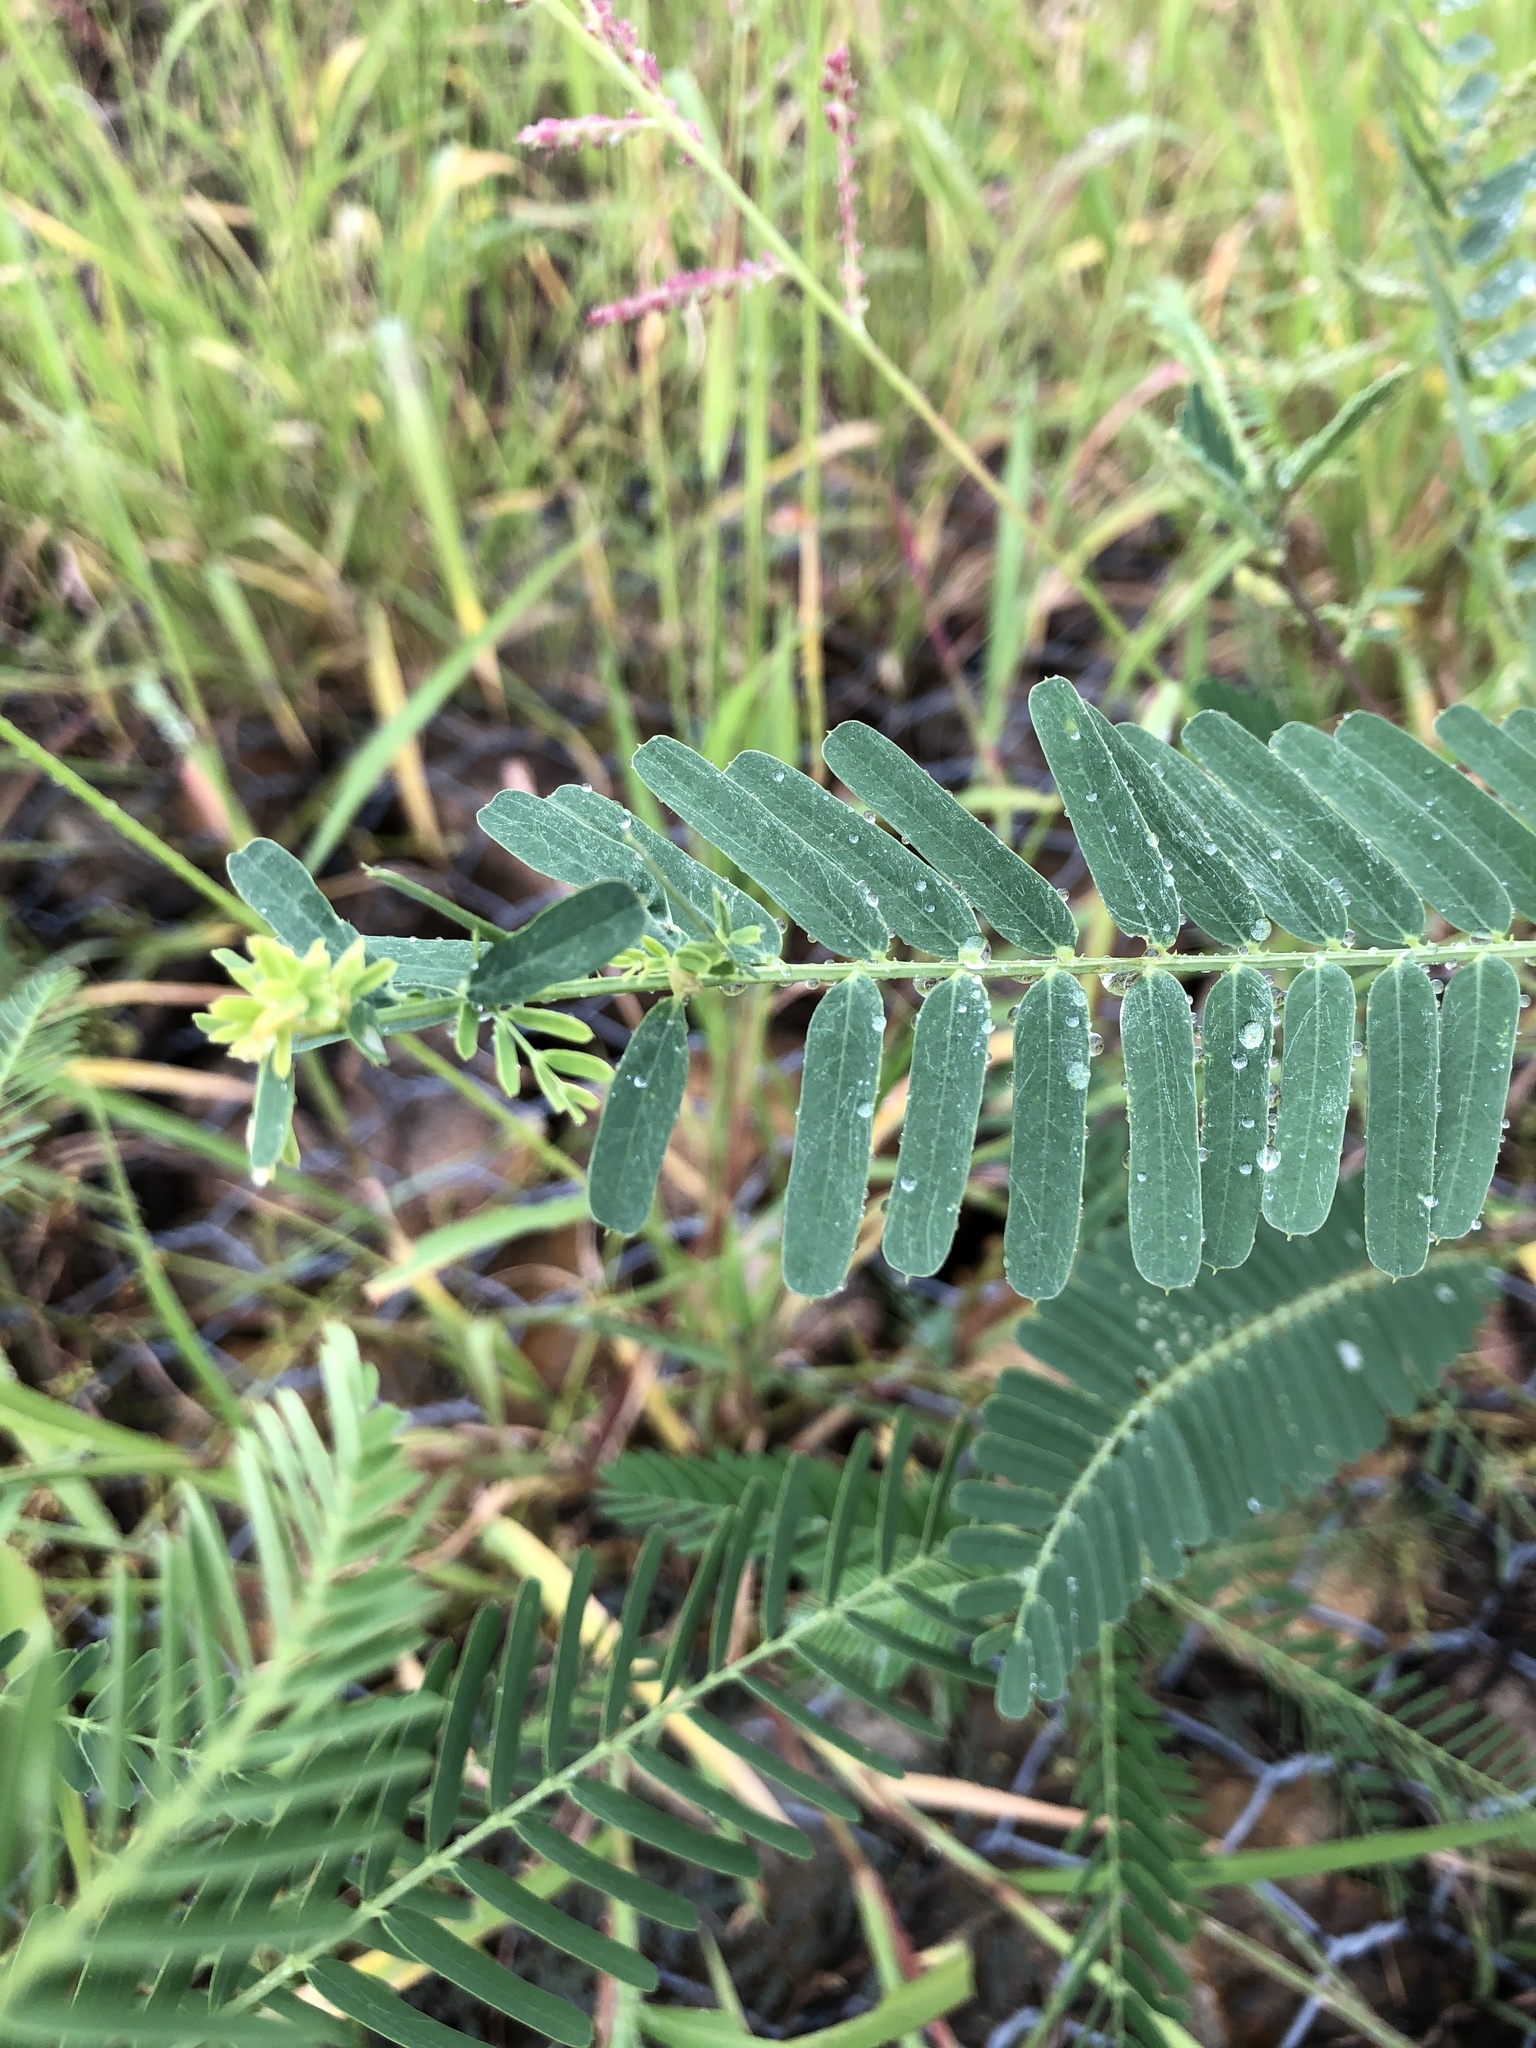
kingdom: Plantae
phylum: Tracheophyta
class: Magnoliopsida
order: Fabales
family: Fabaceae
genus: Sesbania
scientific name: Sesbania cannabina
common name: Canicha
